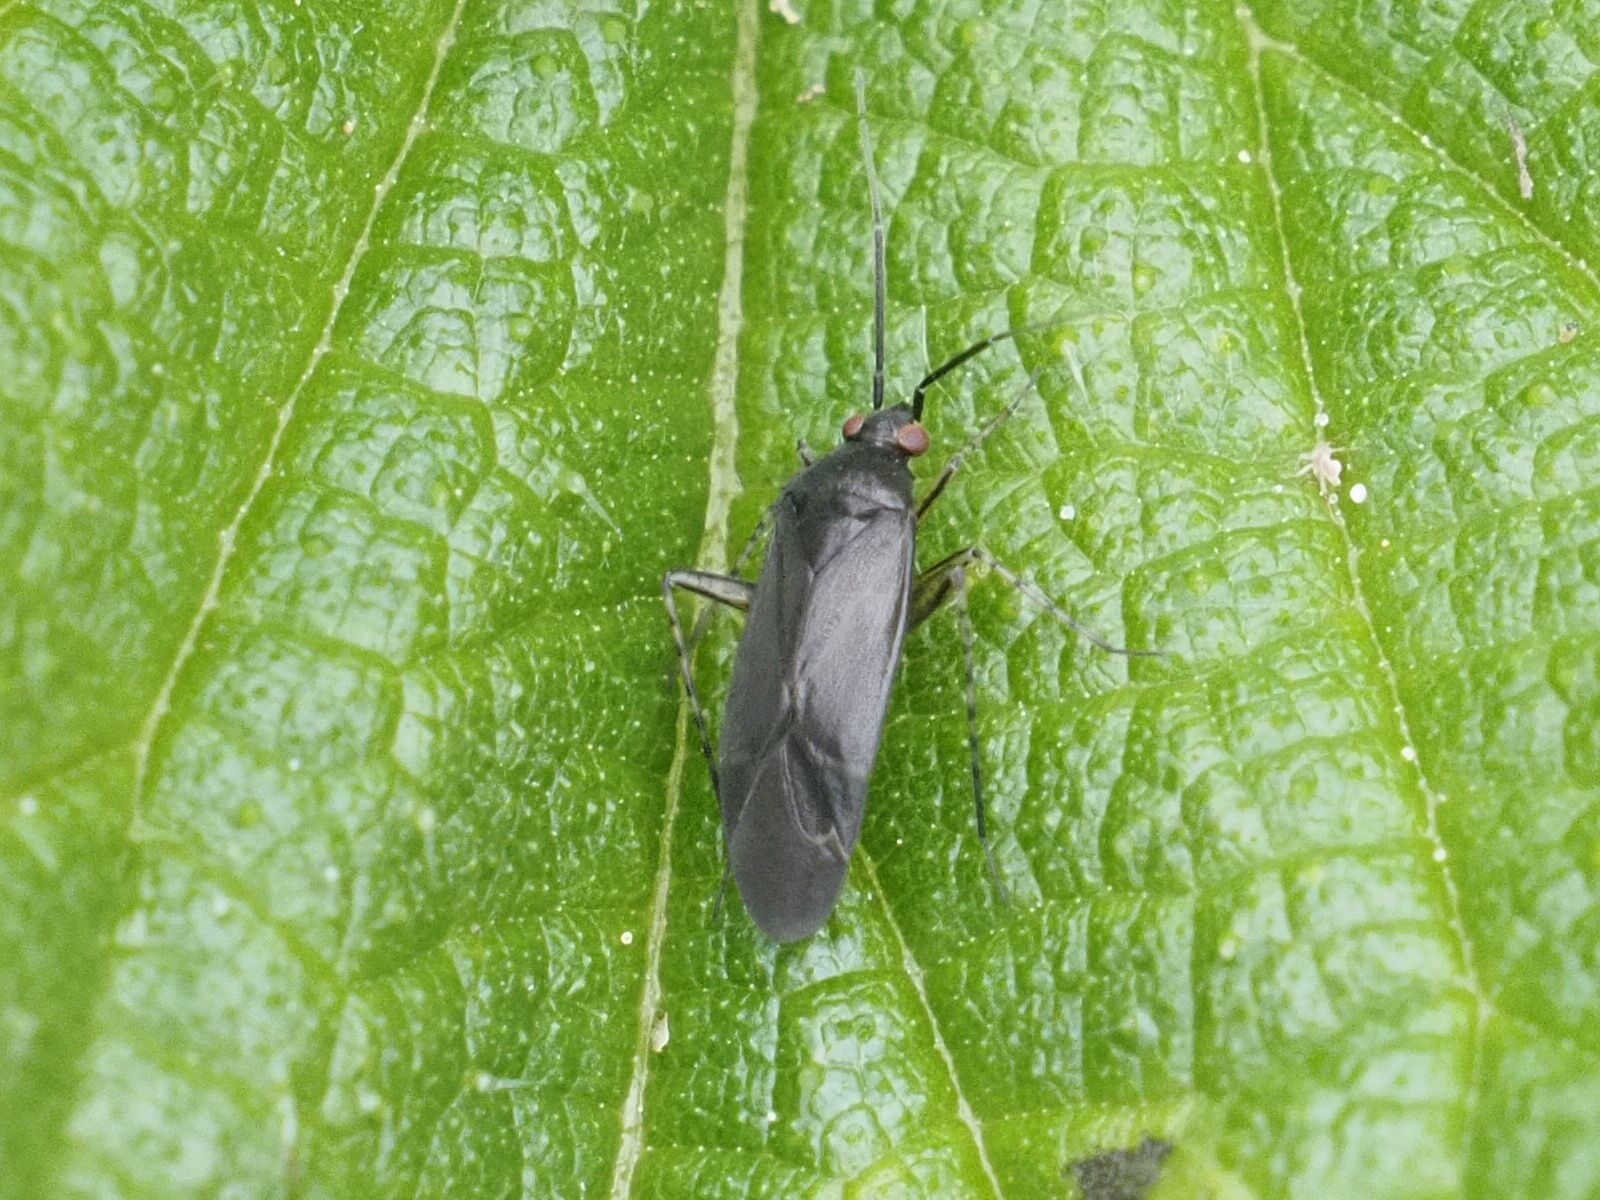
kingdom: Animalia
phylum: Arthropoda
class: Insecta
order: Hemiptera
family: Miridae
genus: Plagiognathus
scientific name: Plagiognathus arbustorum
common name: Plant bug
